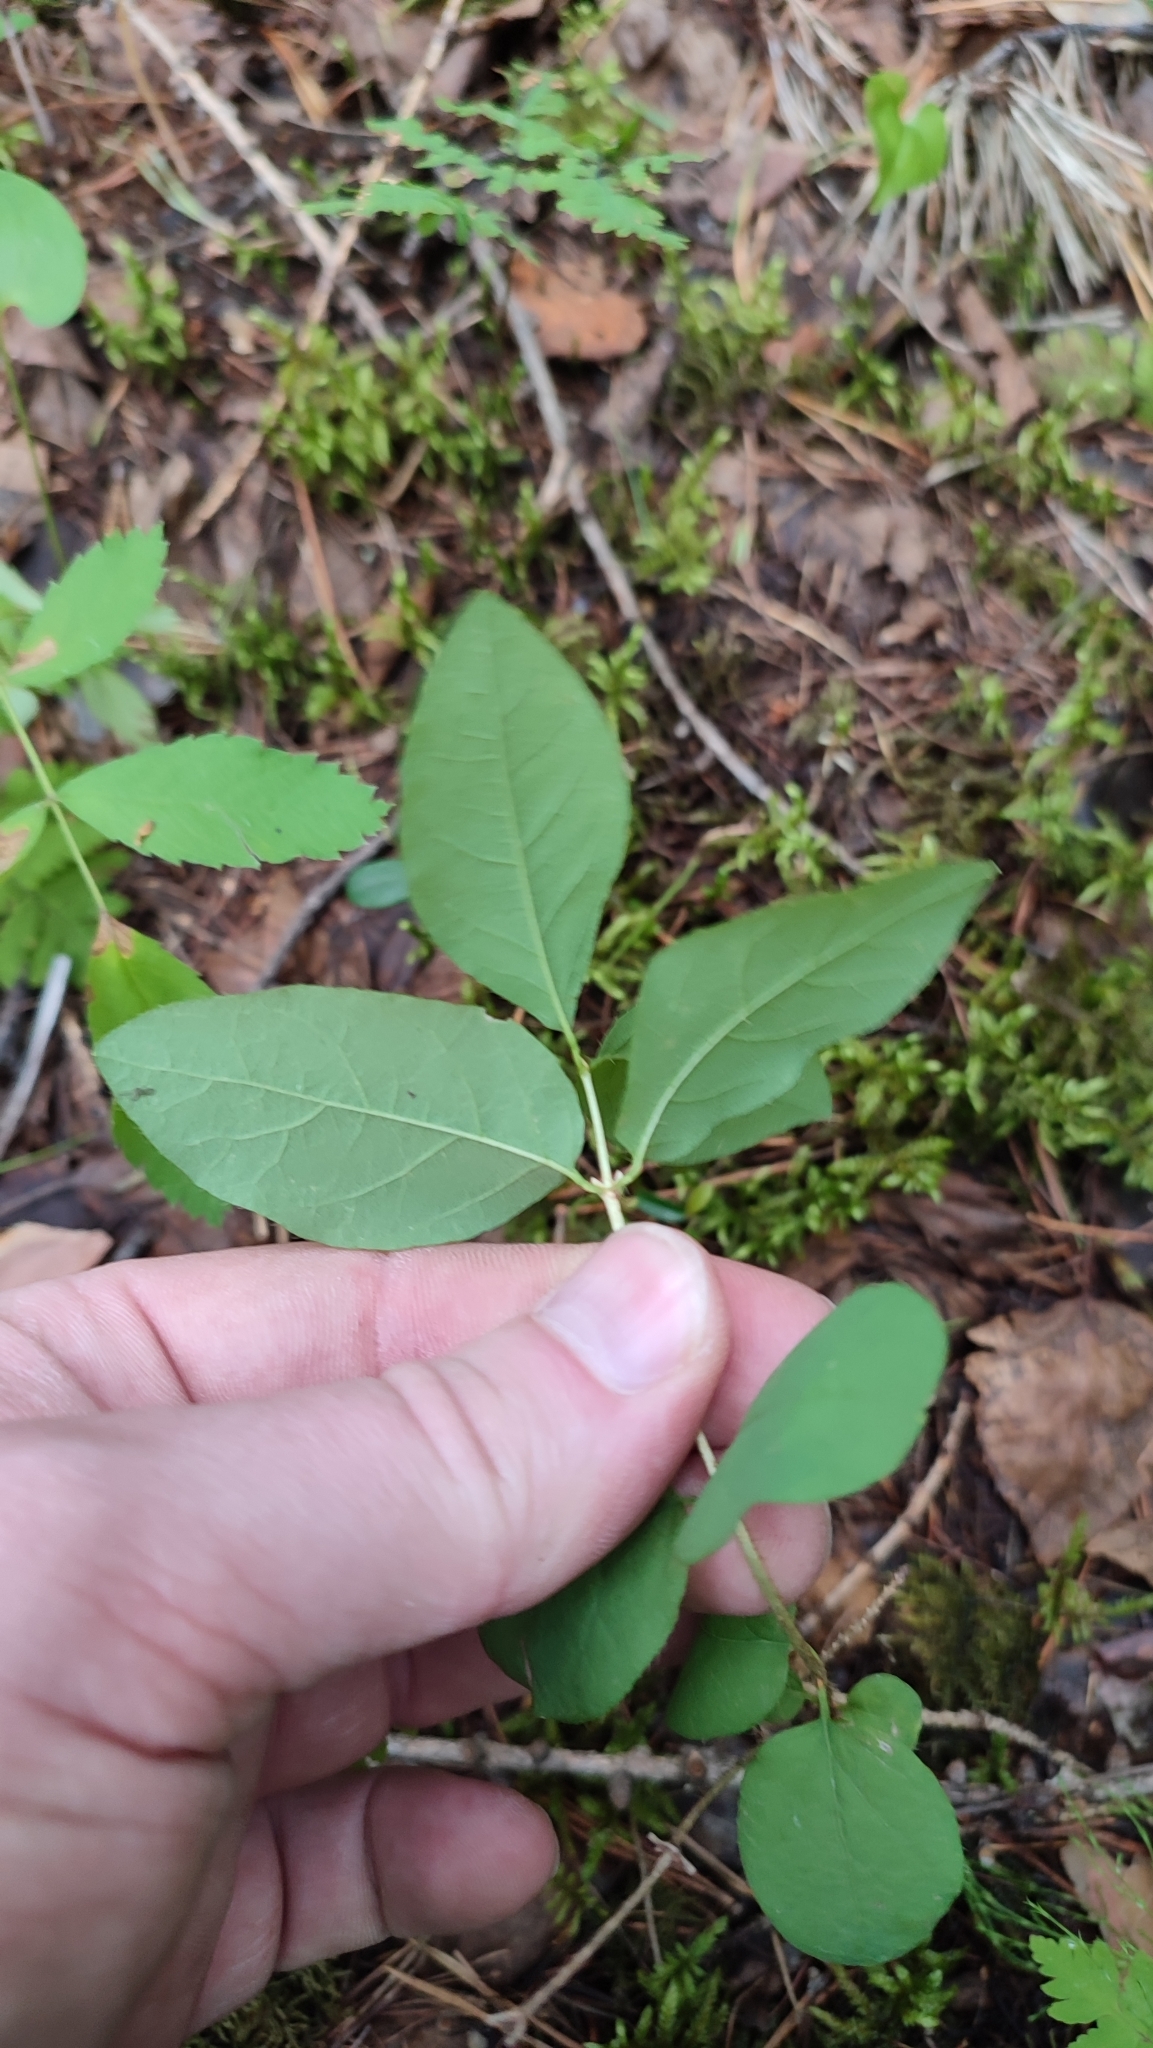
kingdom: Plantae
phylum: Tracheophyta
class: Magnoliopsida
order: Ericales
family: Ericaceae
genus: Vaccinium
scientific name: Vaccinium uliginosum
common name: Bog bilberry
